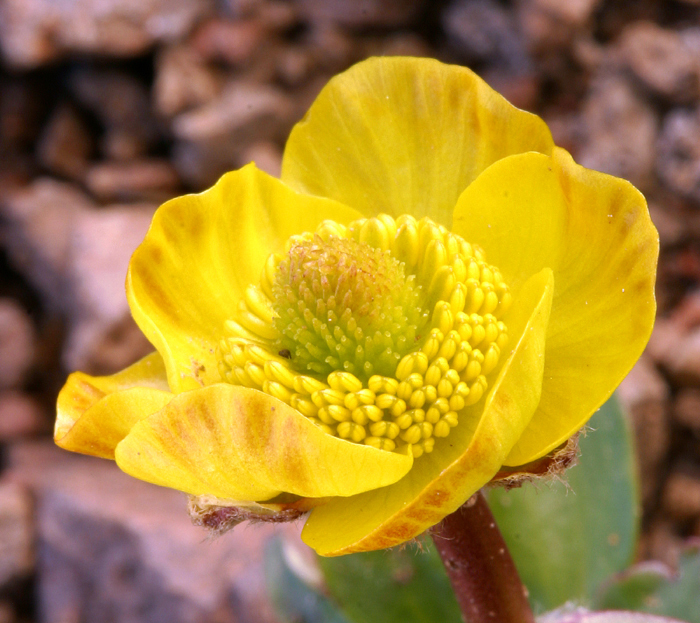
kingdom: Plantae
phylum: Tracheophyta
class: Magnoliopsida
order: Ranunculales
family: Ranunculaceae
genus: Ranunculus
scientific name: Ranunculus eschscholtzii
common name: Eschscholtz's buttercup
